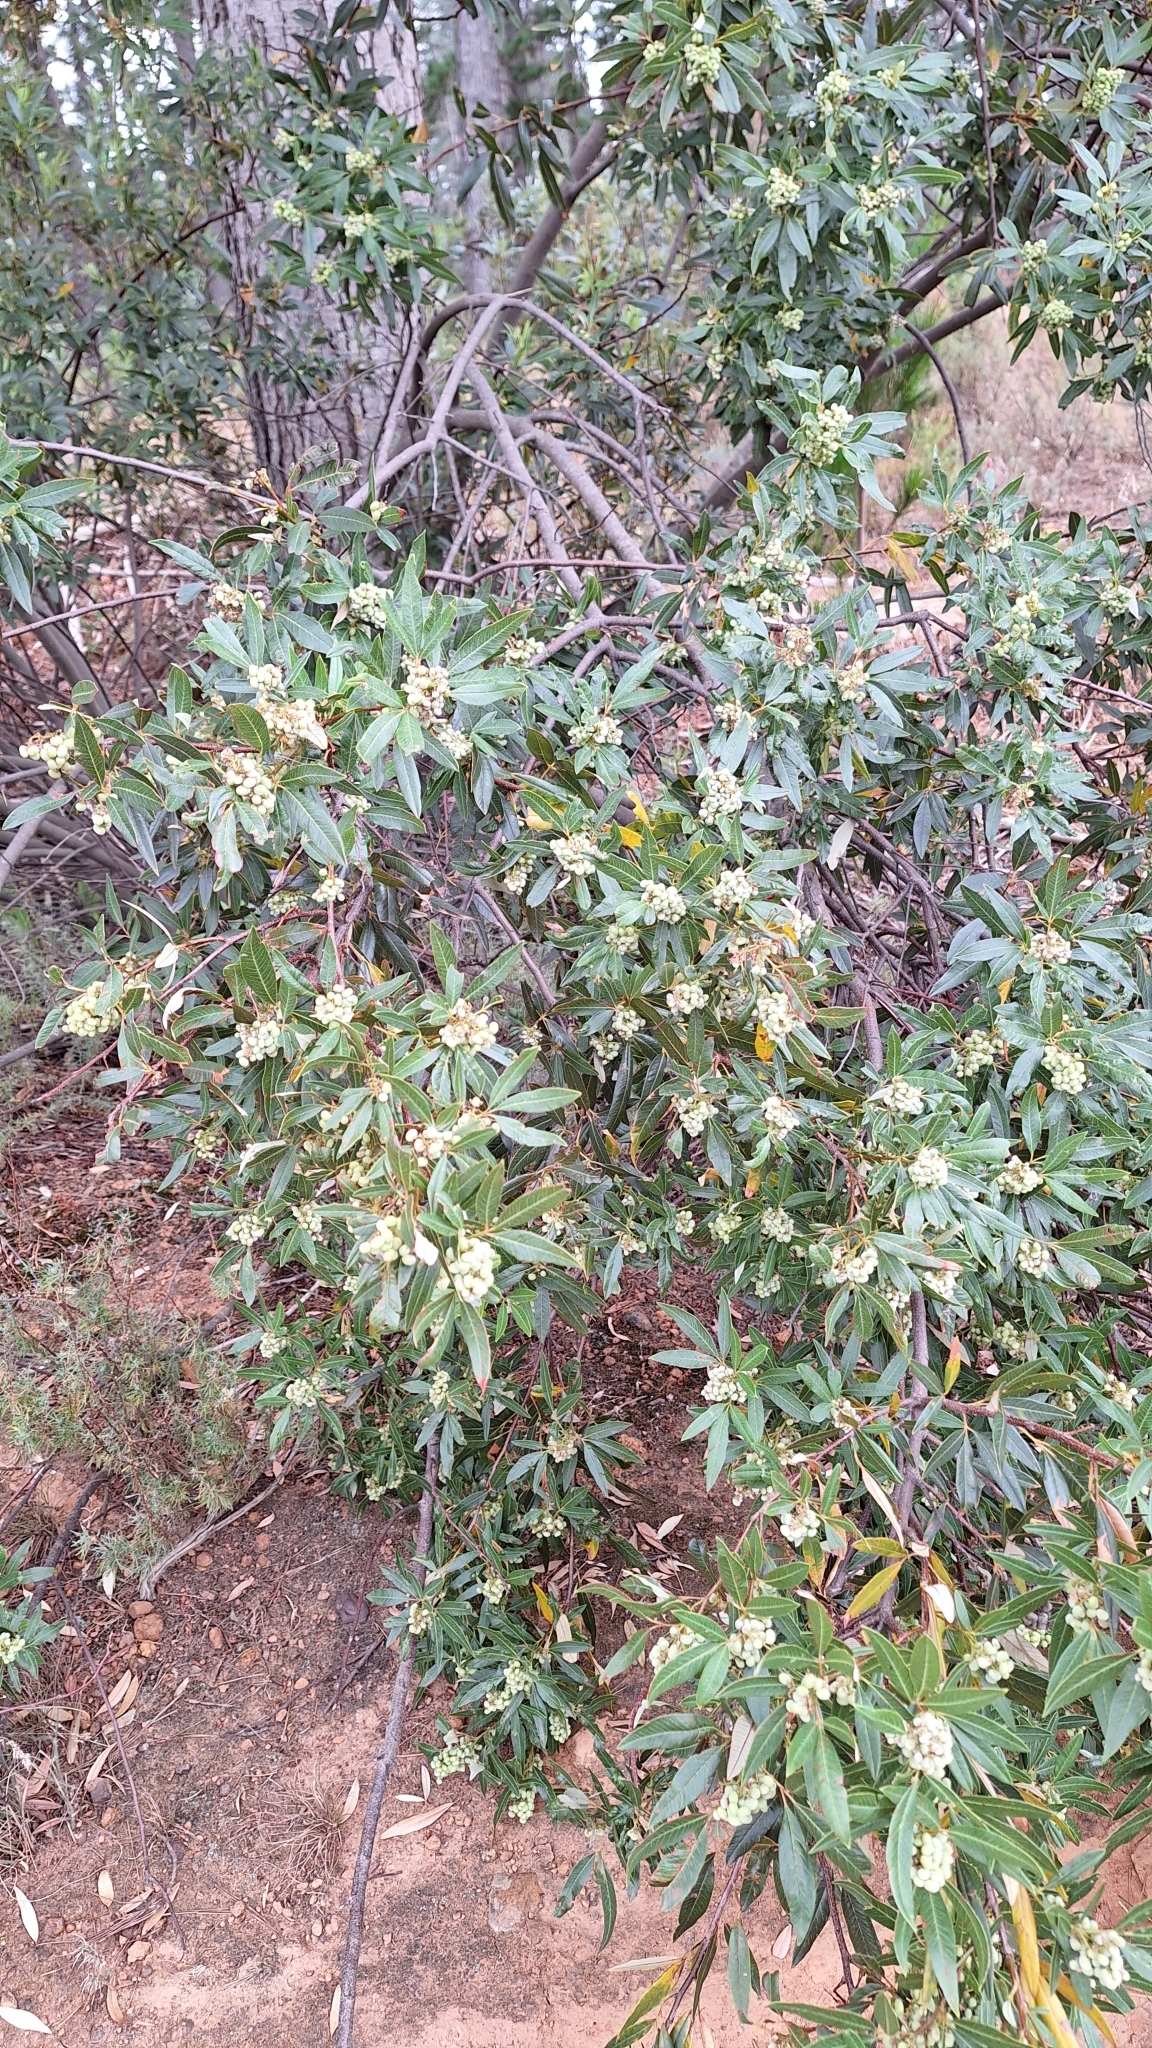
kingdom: Plantae
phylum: Tracheophyta
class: Magnoliopsida
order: Sapindales
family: Anacardiaceae
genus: Searsia
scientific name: Searsia angustifolia
